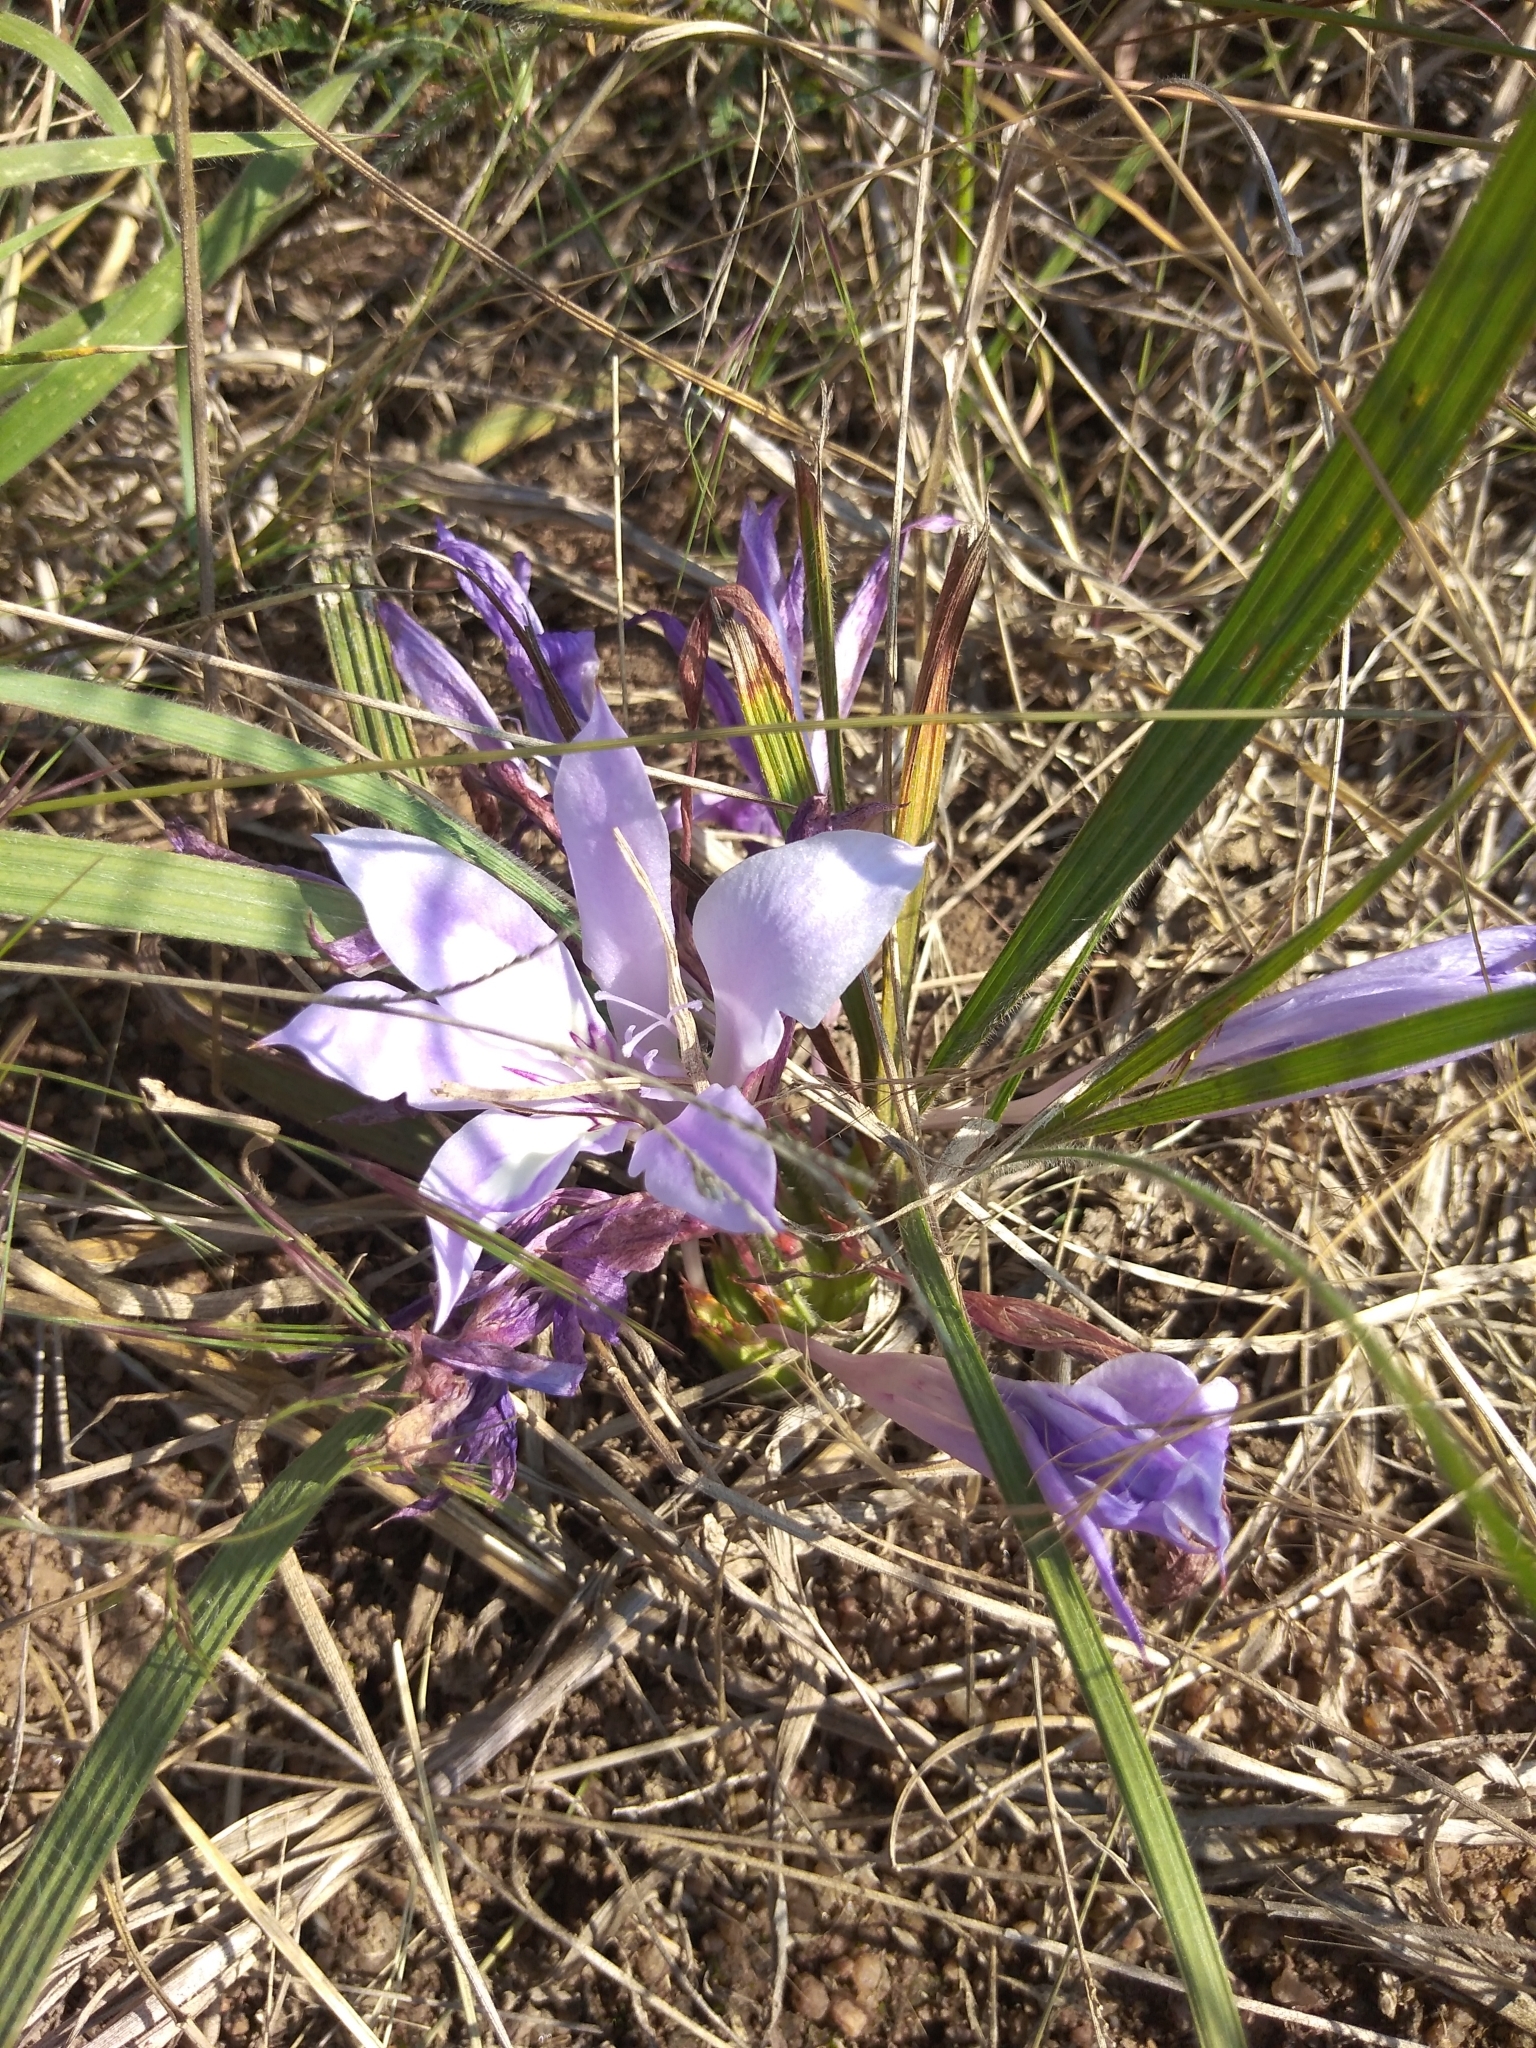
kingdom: Plantae
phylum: Tracheophyta
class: Liliopsida
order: Asparagales
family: Iridaceae
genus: Babiana
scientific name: Babiana bainesii
